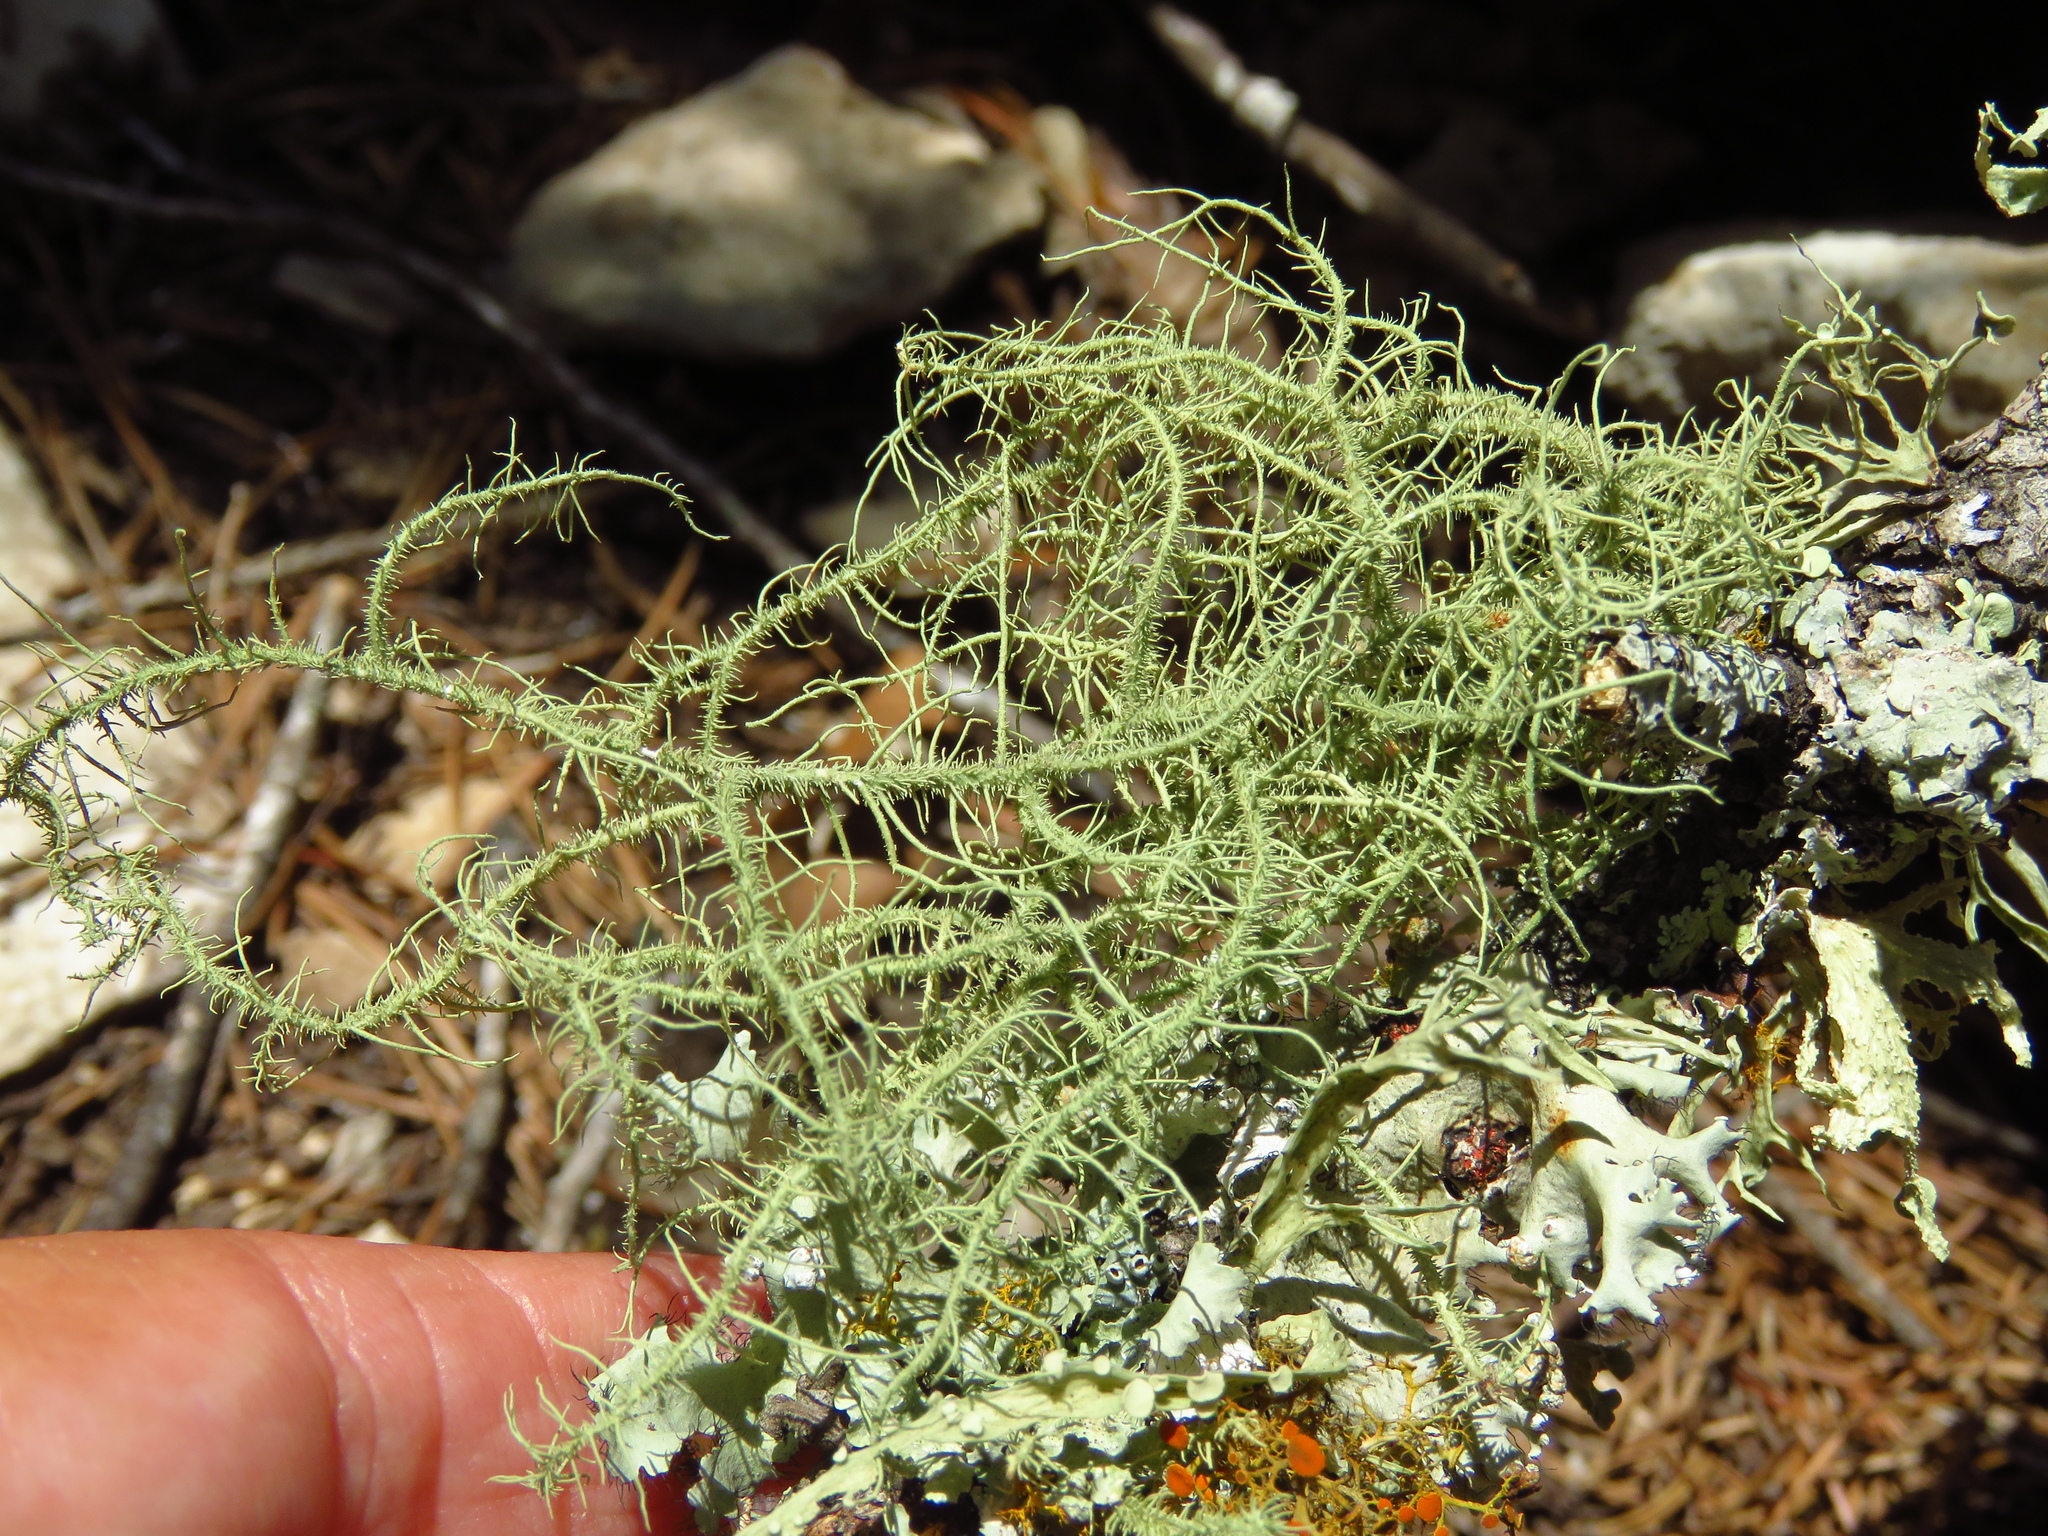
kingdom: Fungi
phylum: Ascomycota
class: Lecanoromycetes
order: Lecanorales
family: Parmeliaceae
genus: Usnea
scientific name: Usnea strigosa
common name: Bushy beard lichen
